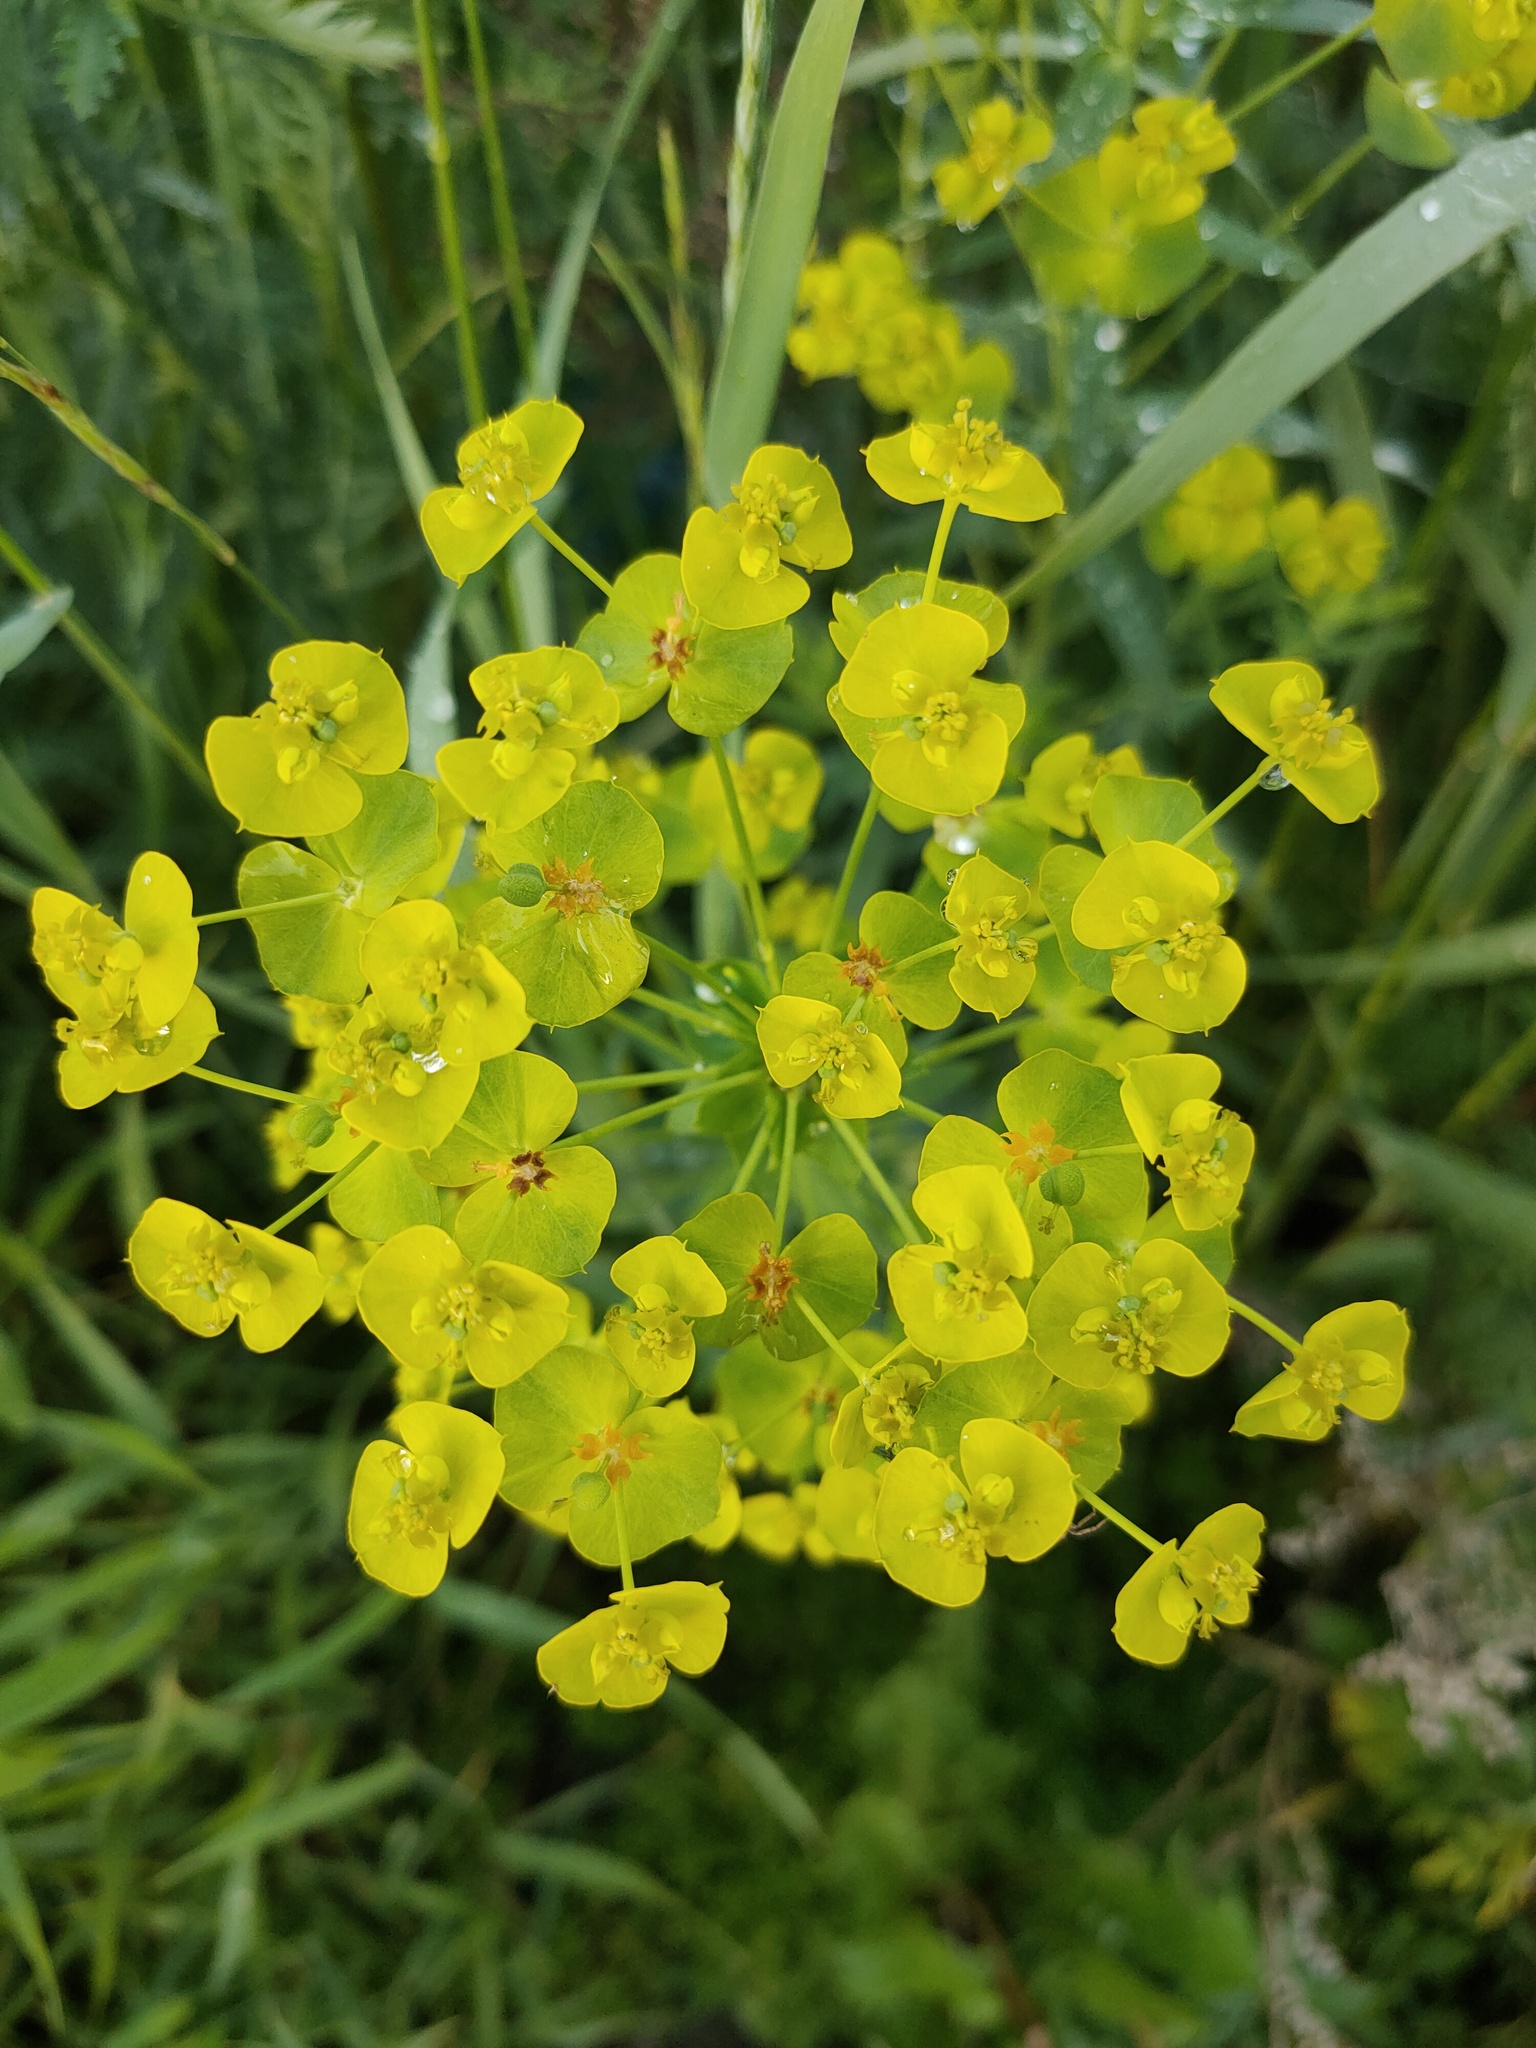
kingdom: Plantae
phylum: Tracheophyta
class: Magnoliopsida
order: Malpighiales
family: Euphorbiaceae
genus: Euphorbia
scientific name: Euphorbia virgata
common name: Leafy spurge
